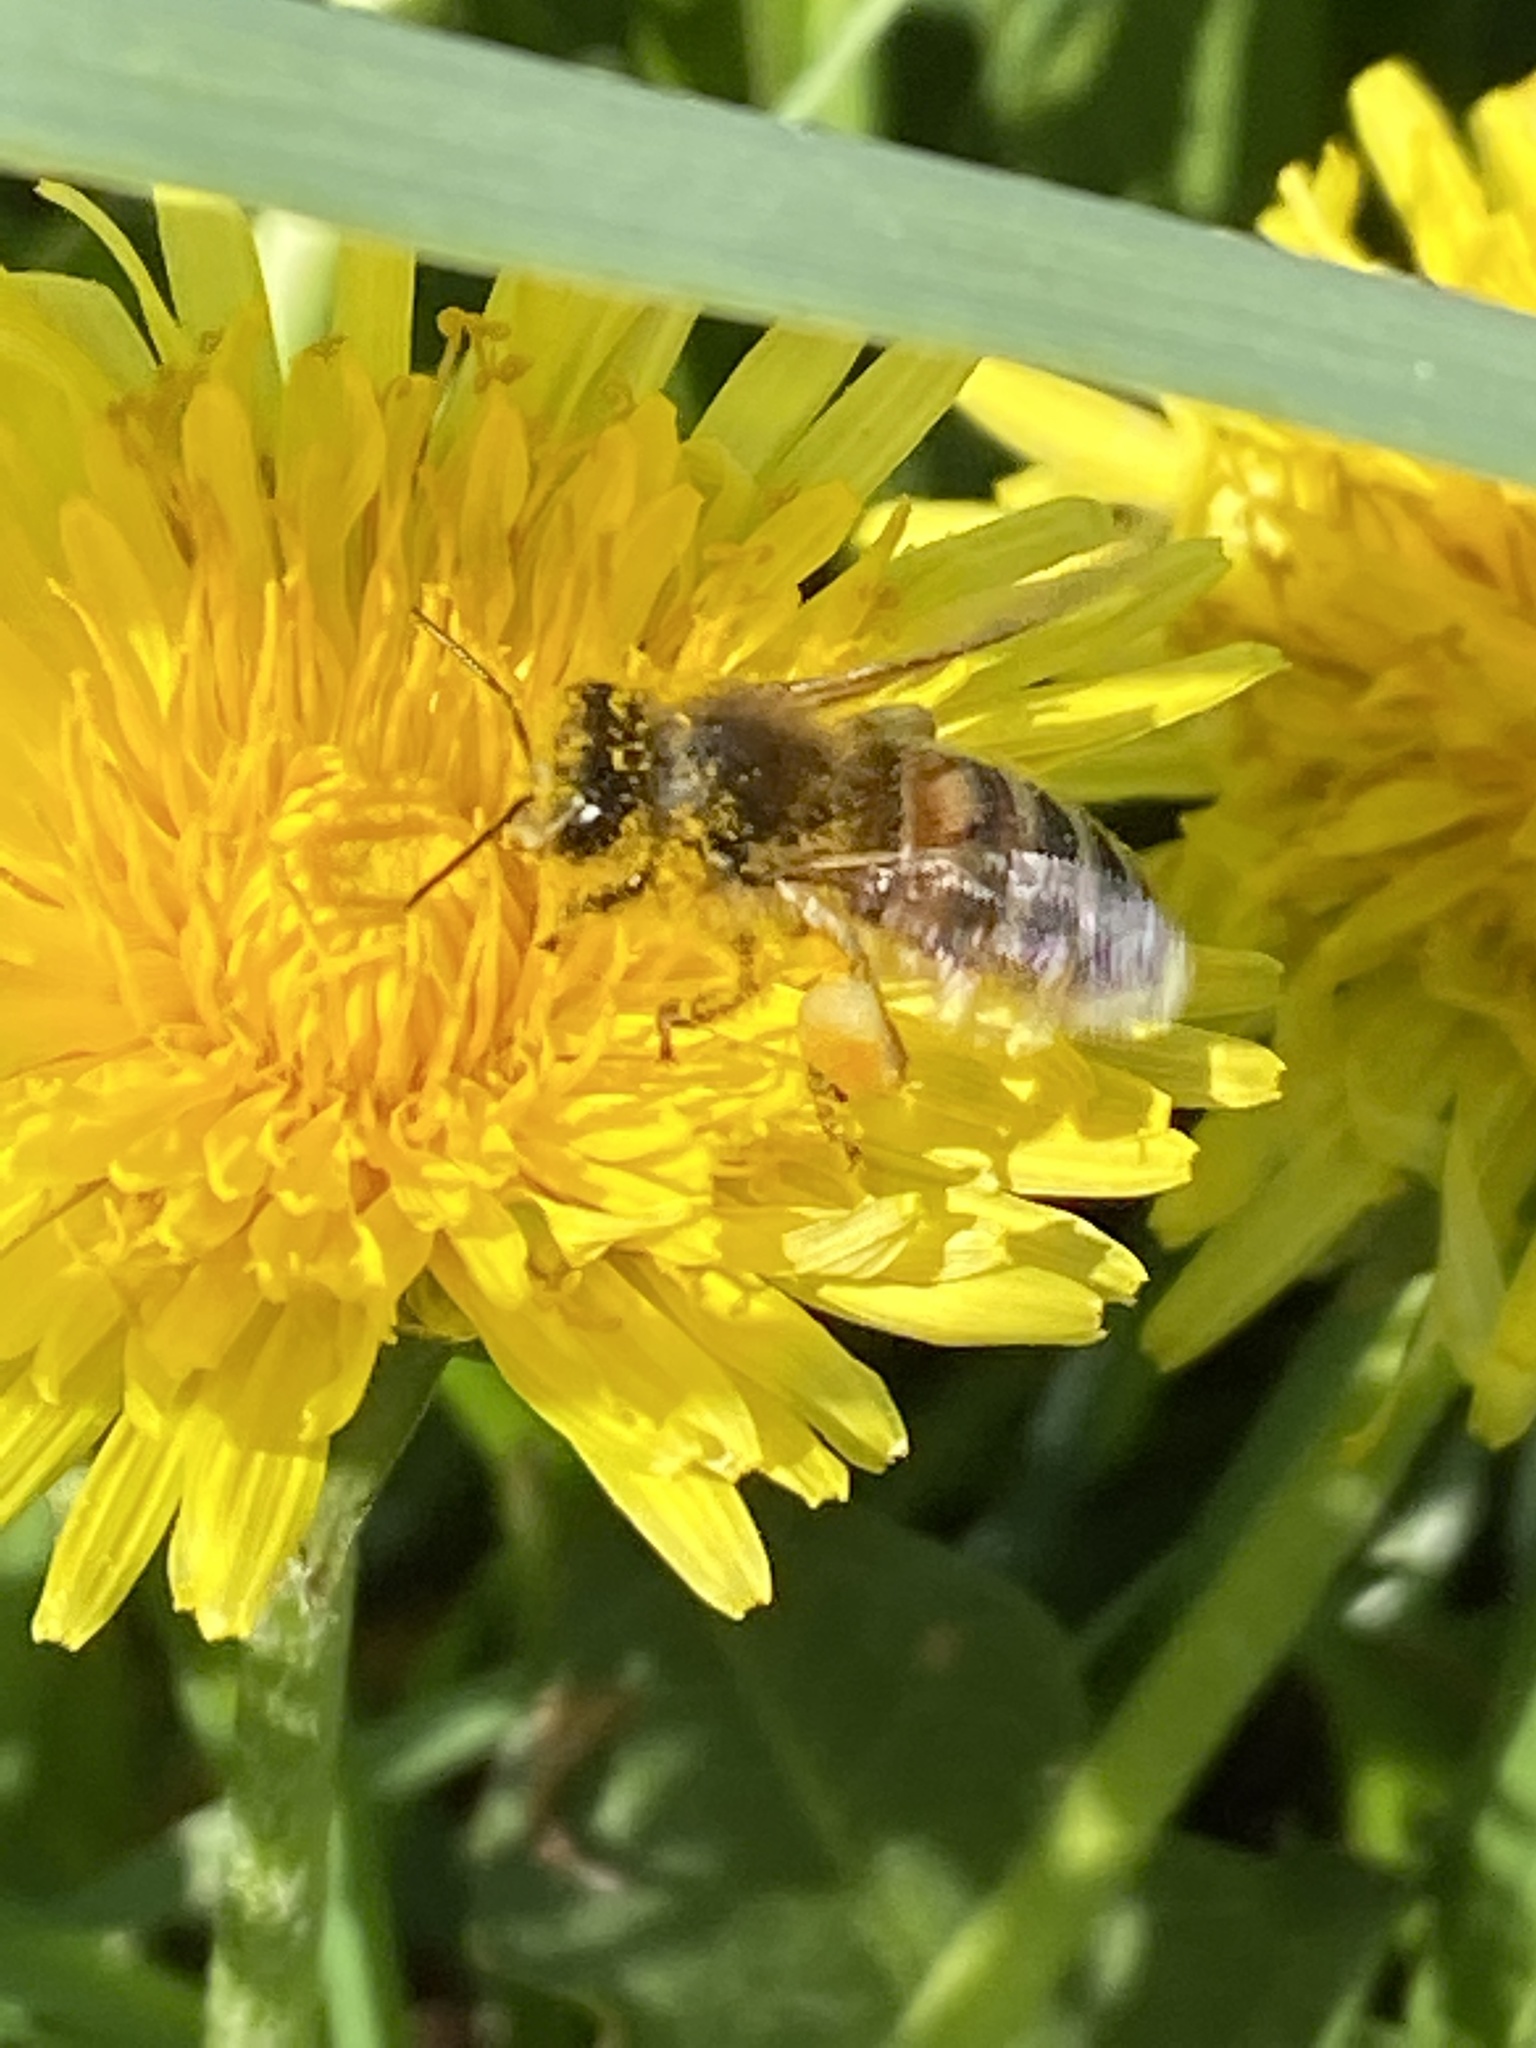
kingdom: Animalia
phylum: Arthropoda
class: Insecta
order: Hymenoptera
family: Apidae
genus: Apis
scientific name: Apis mellifera
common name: Honey bee
